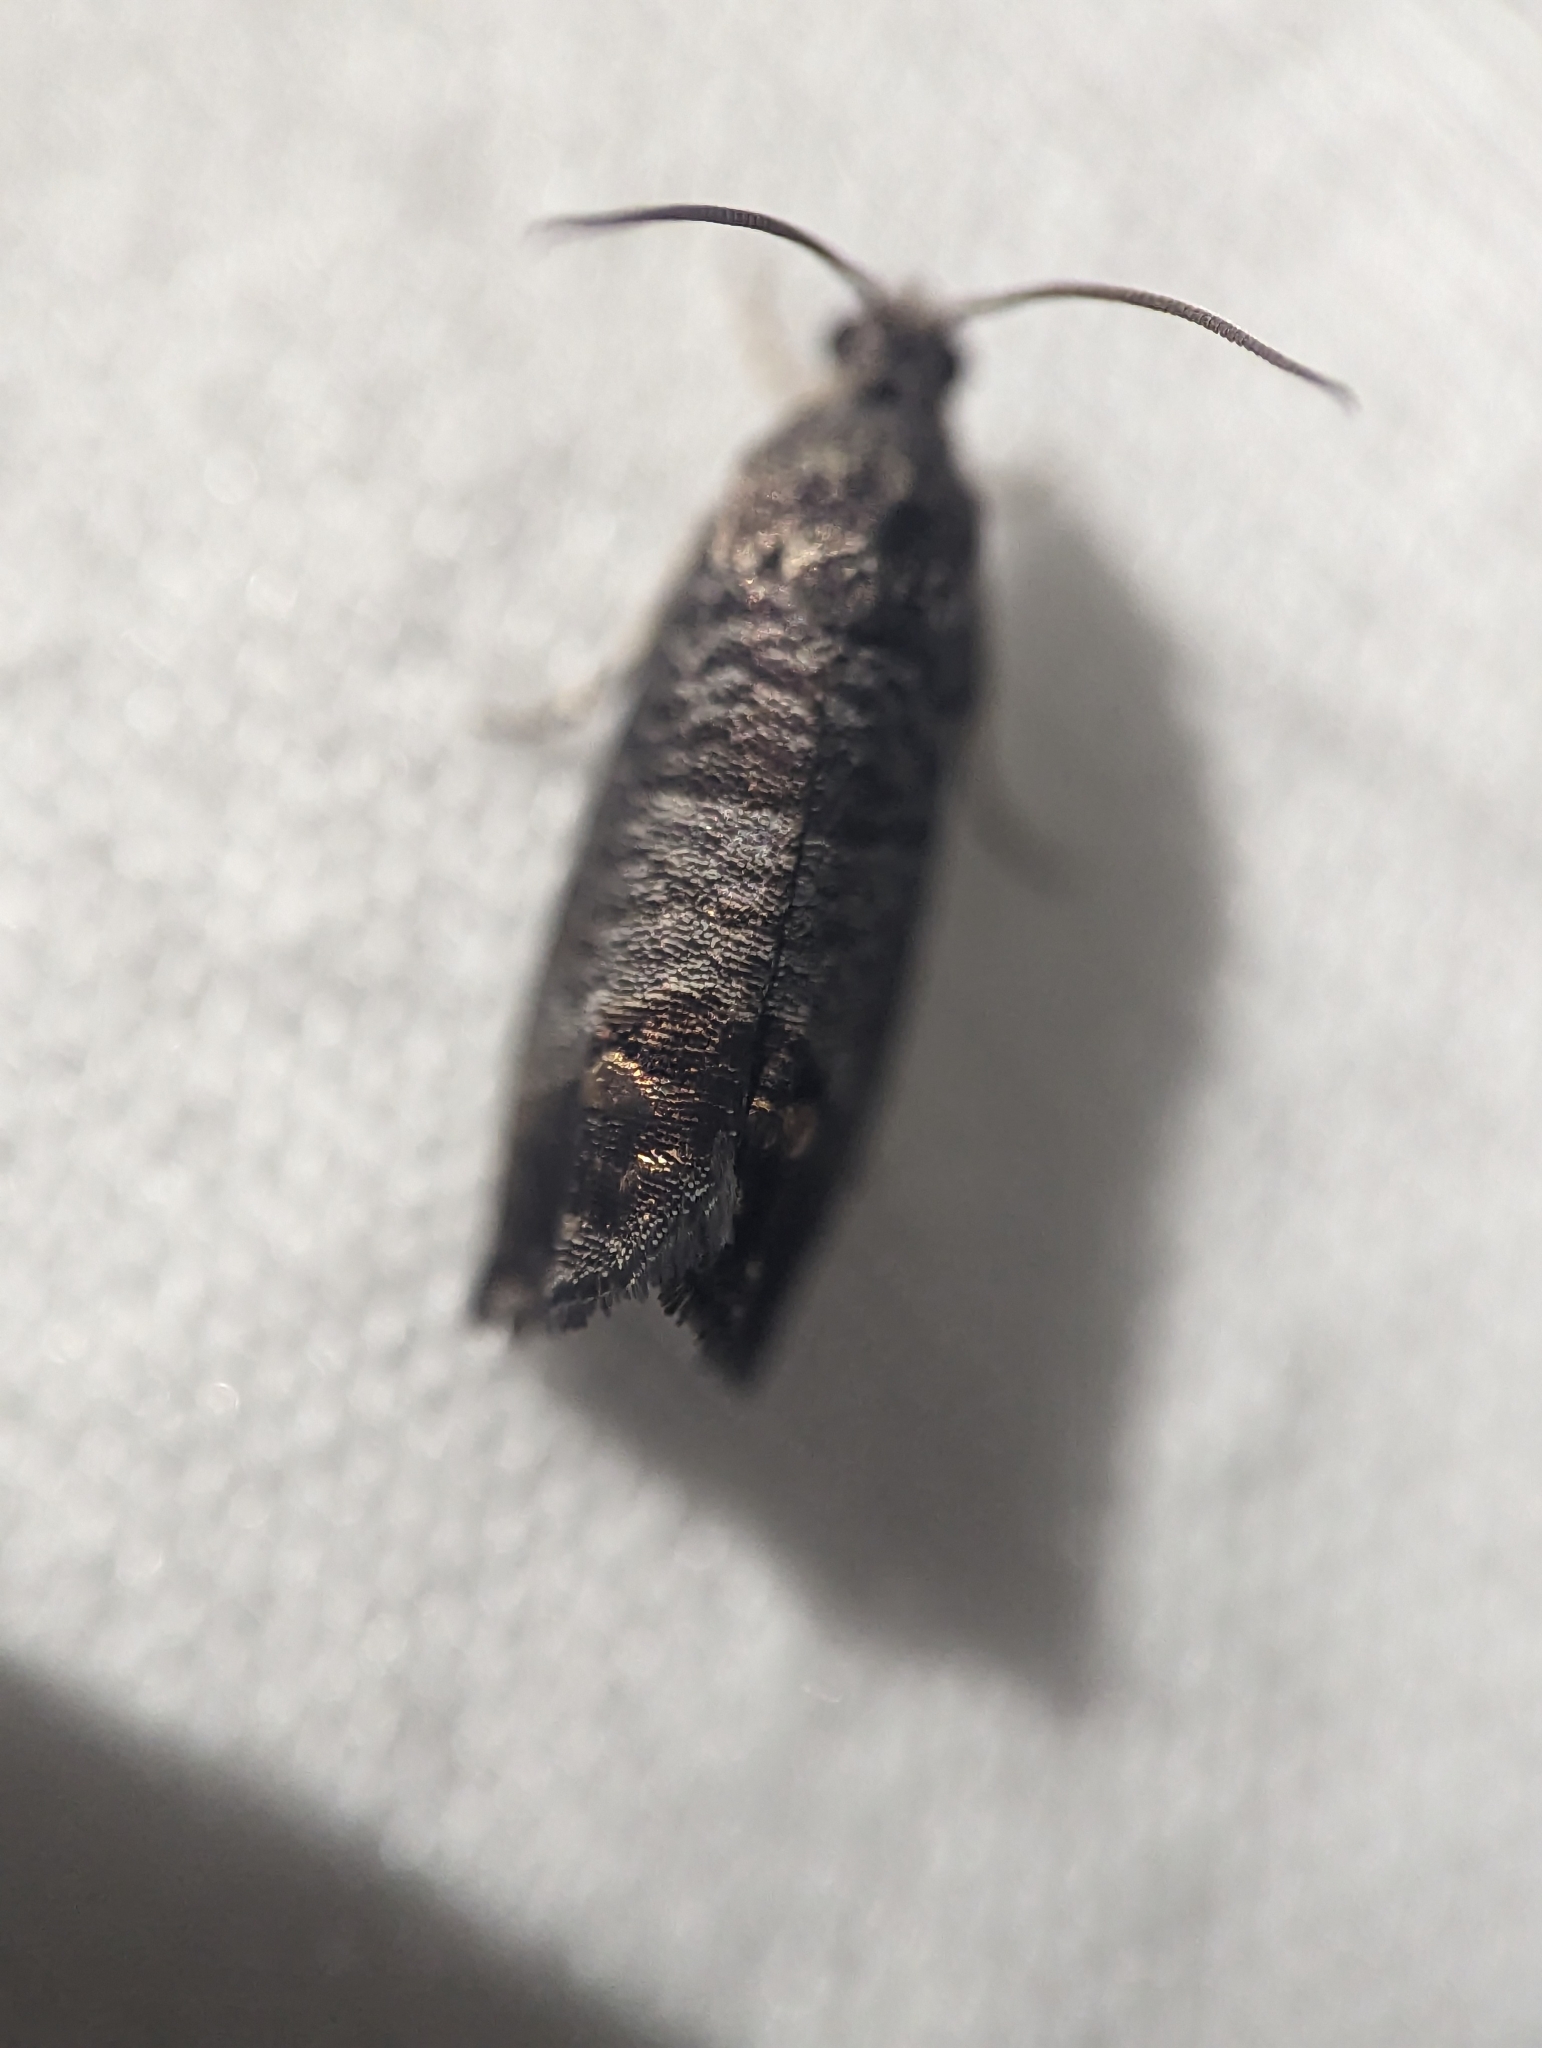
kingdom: Animalia
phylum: Arthropoda
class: Insecta
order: Lepidoptera
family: Tortricidae
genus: Cydia
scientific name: Cydia pomonella
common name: Codling moth
